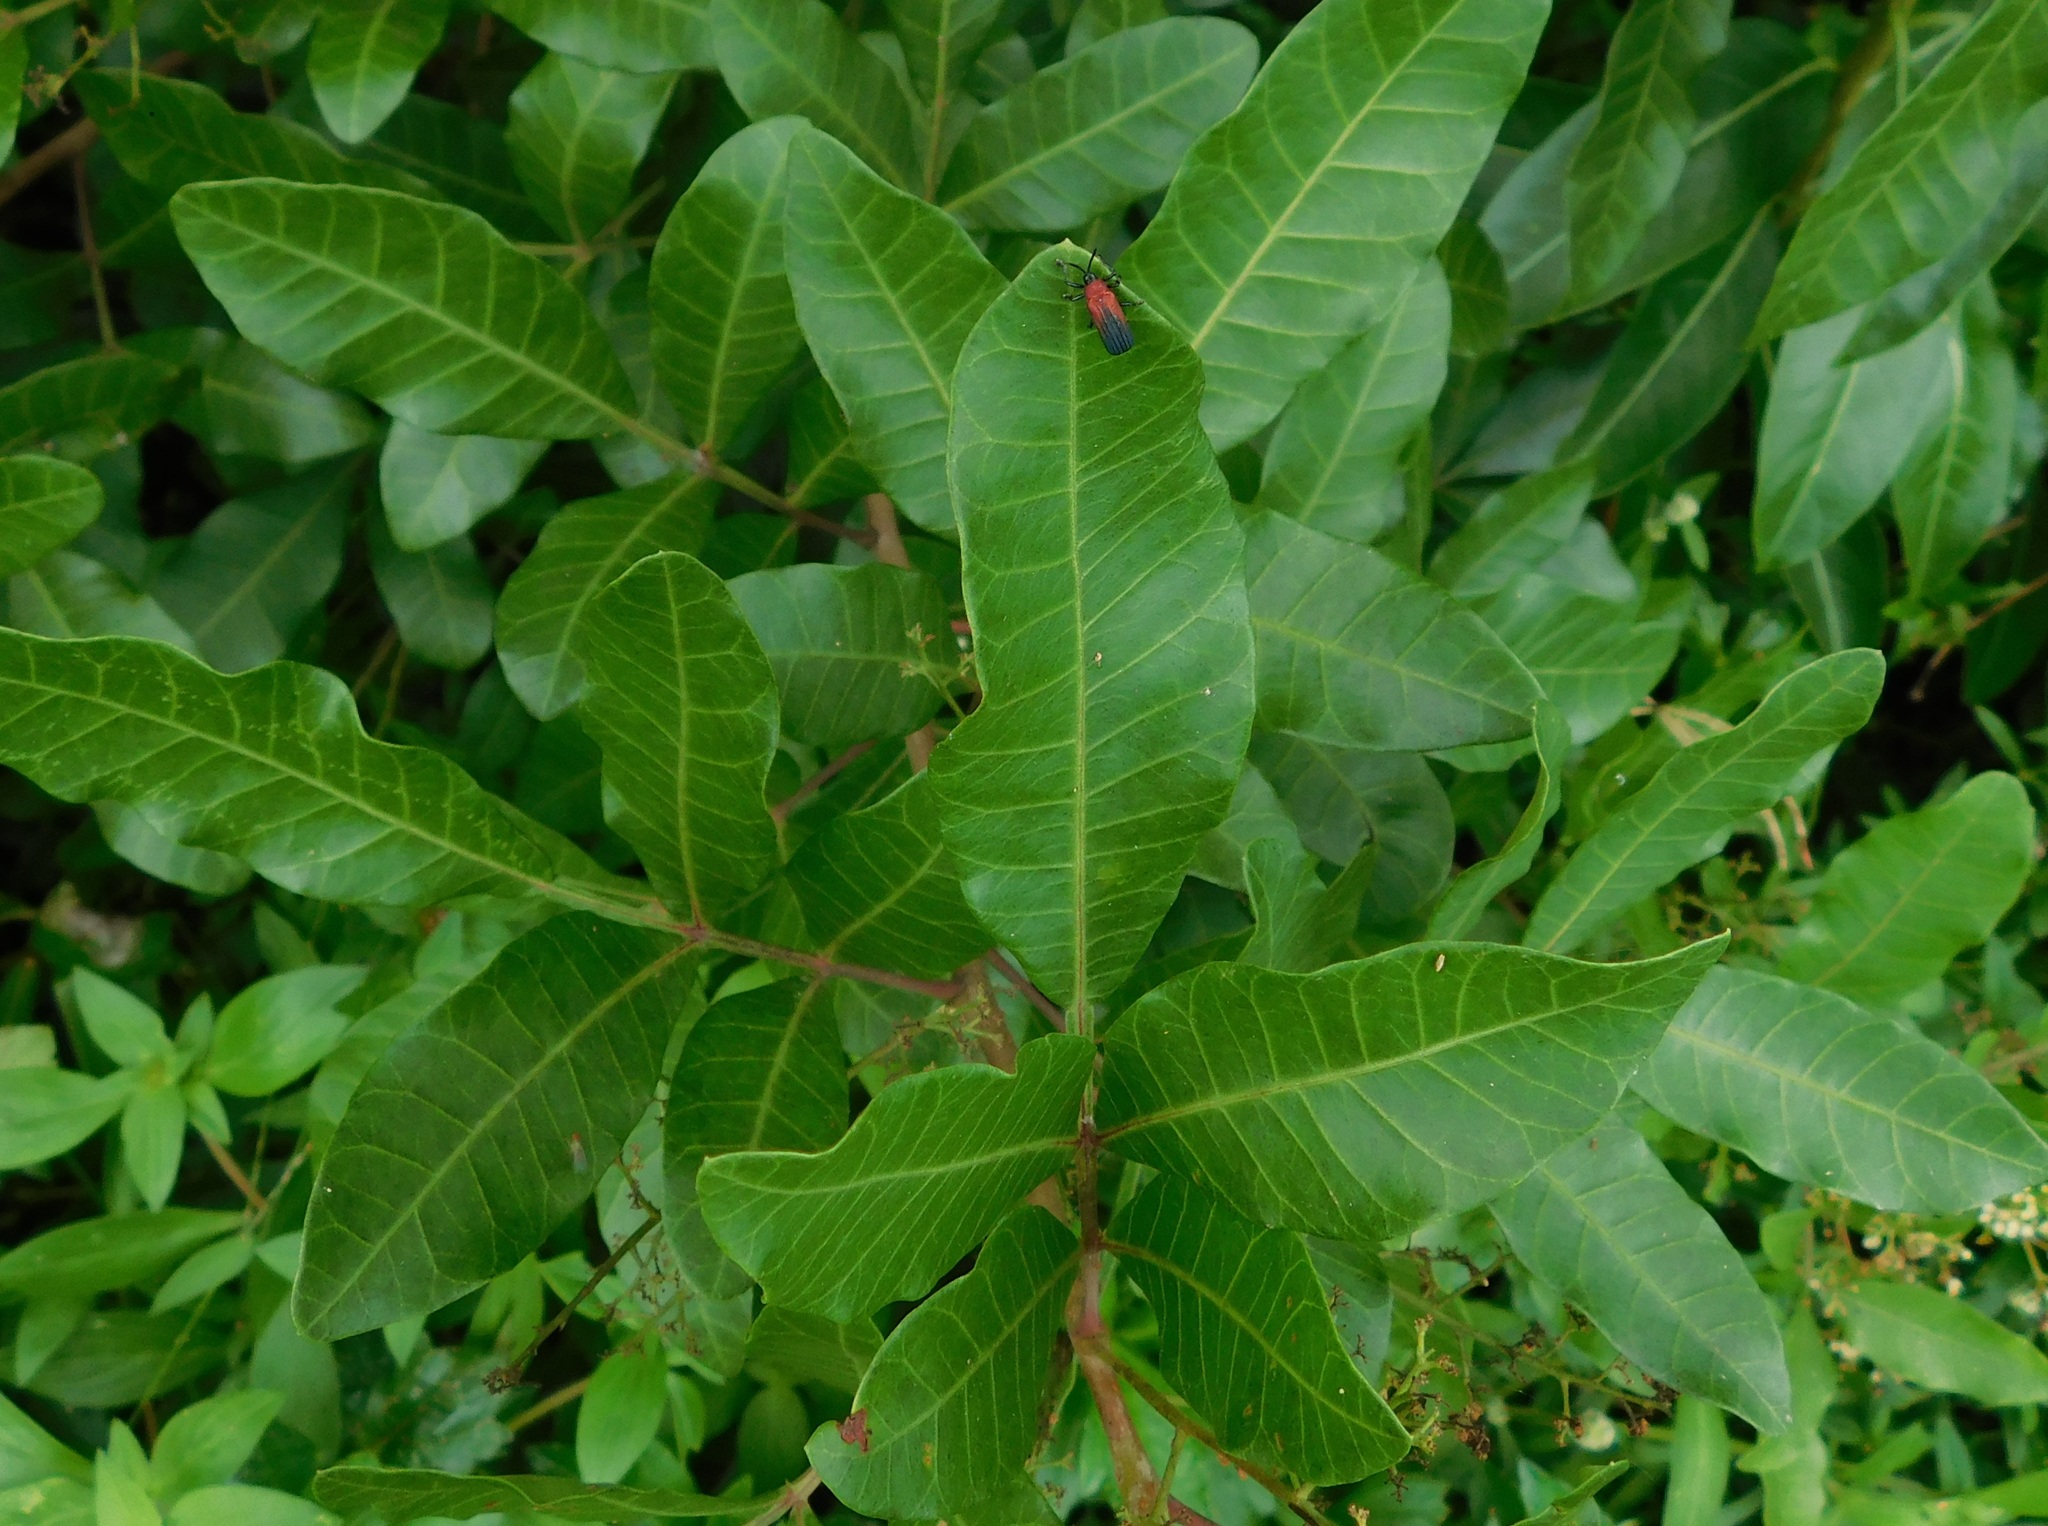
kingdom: Plantae
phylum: Tracheophyta
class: Magnoliopsida
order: Sapindales
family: Anacardiaceae
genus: Schinus
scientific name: Schinus terebinthifolia
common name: Brazilian peppertree
